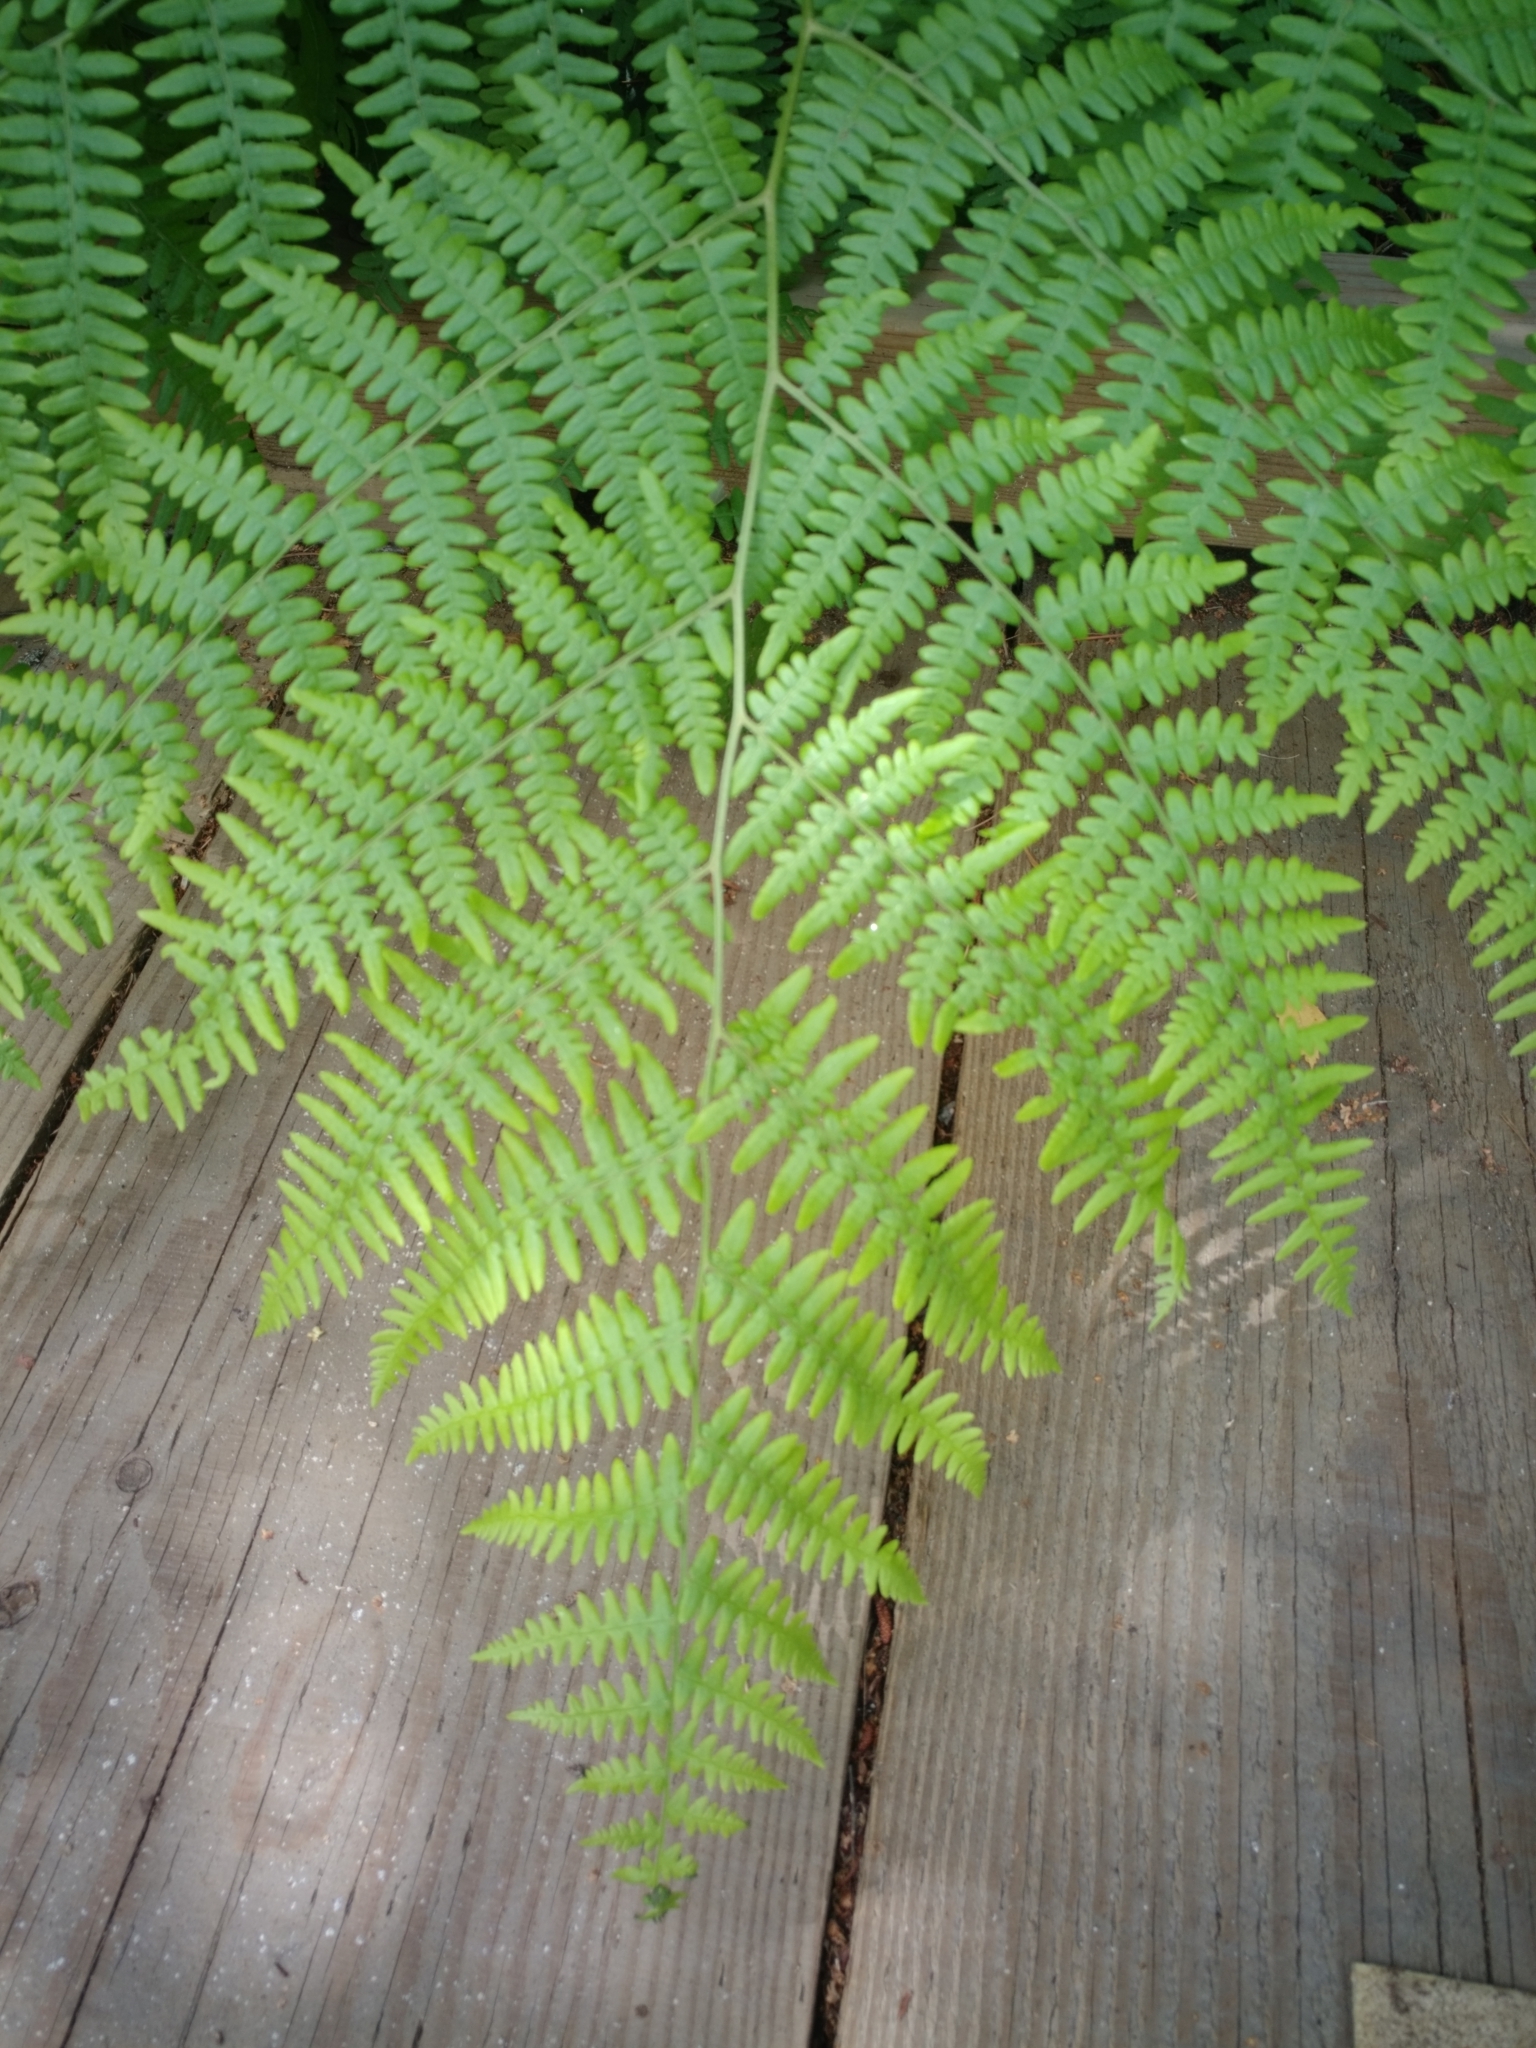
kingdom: Plantae
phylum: Tracheophyta
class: Polypodiopsida
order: Polypodiales
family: Dennstaedtiaceae
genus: Pteridium
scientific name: Pteridium aquilinum
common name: Bracken
